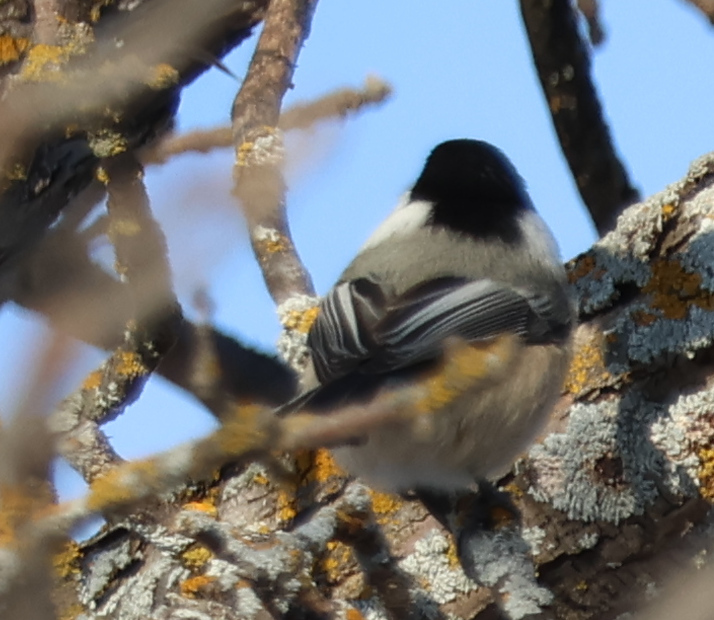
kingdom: Animalia
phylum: Chordata
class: Aves
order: Passeriformes
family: Paridae
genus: Poecile
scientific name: Poecile atricapillus
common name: Black-capped chickadee
